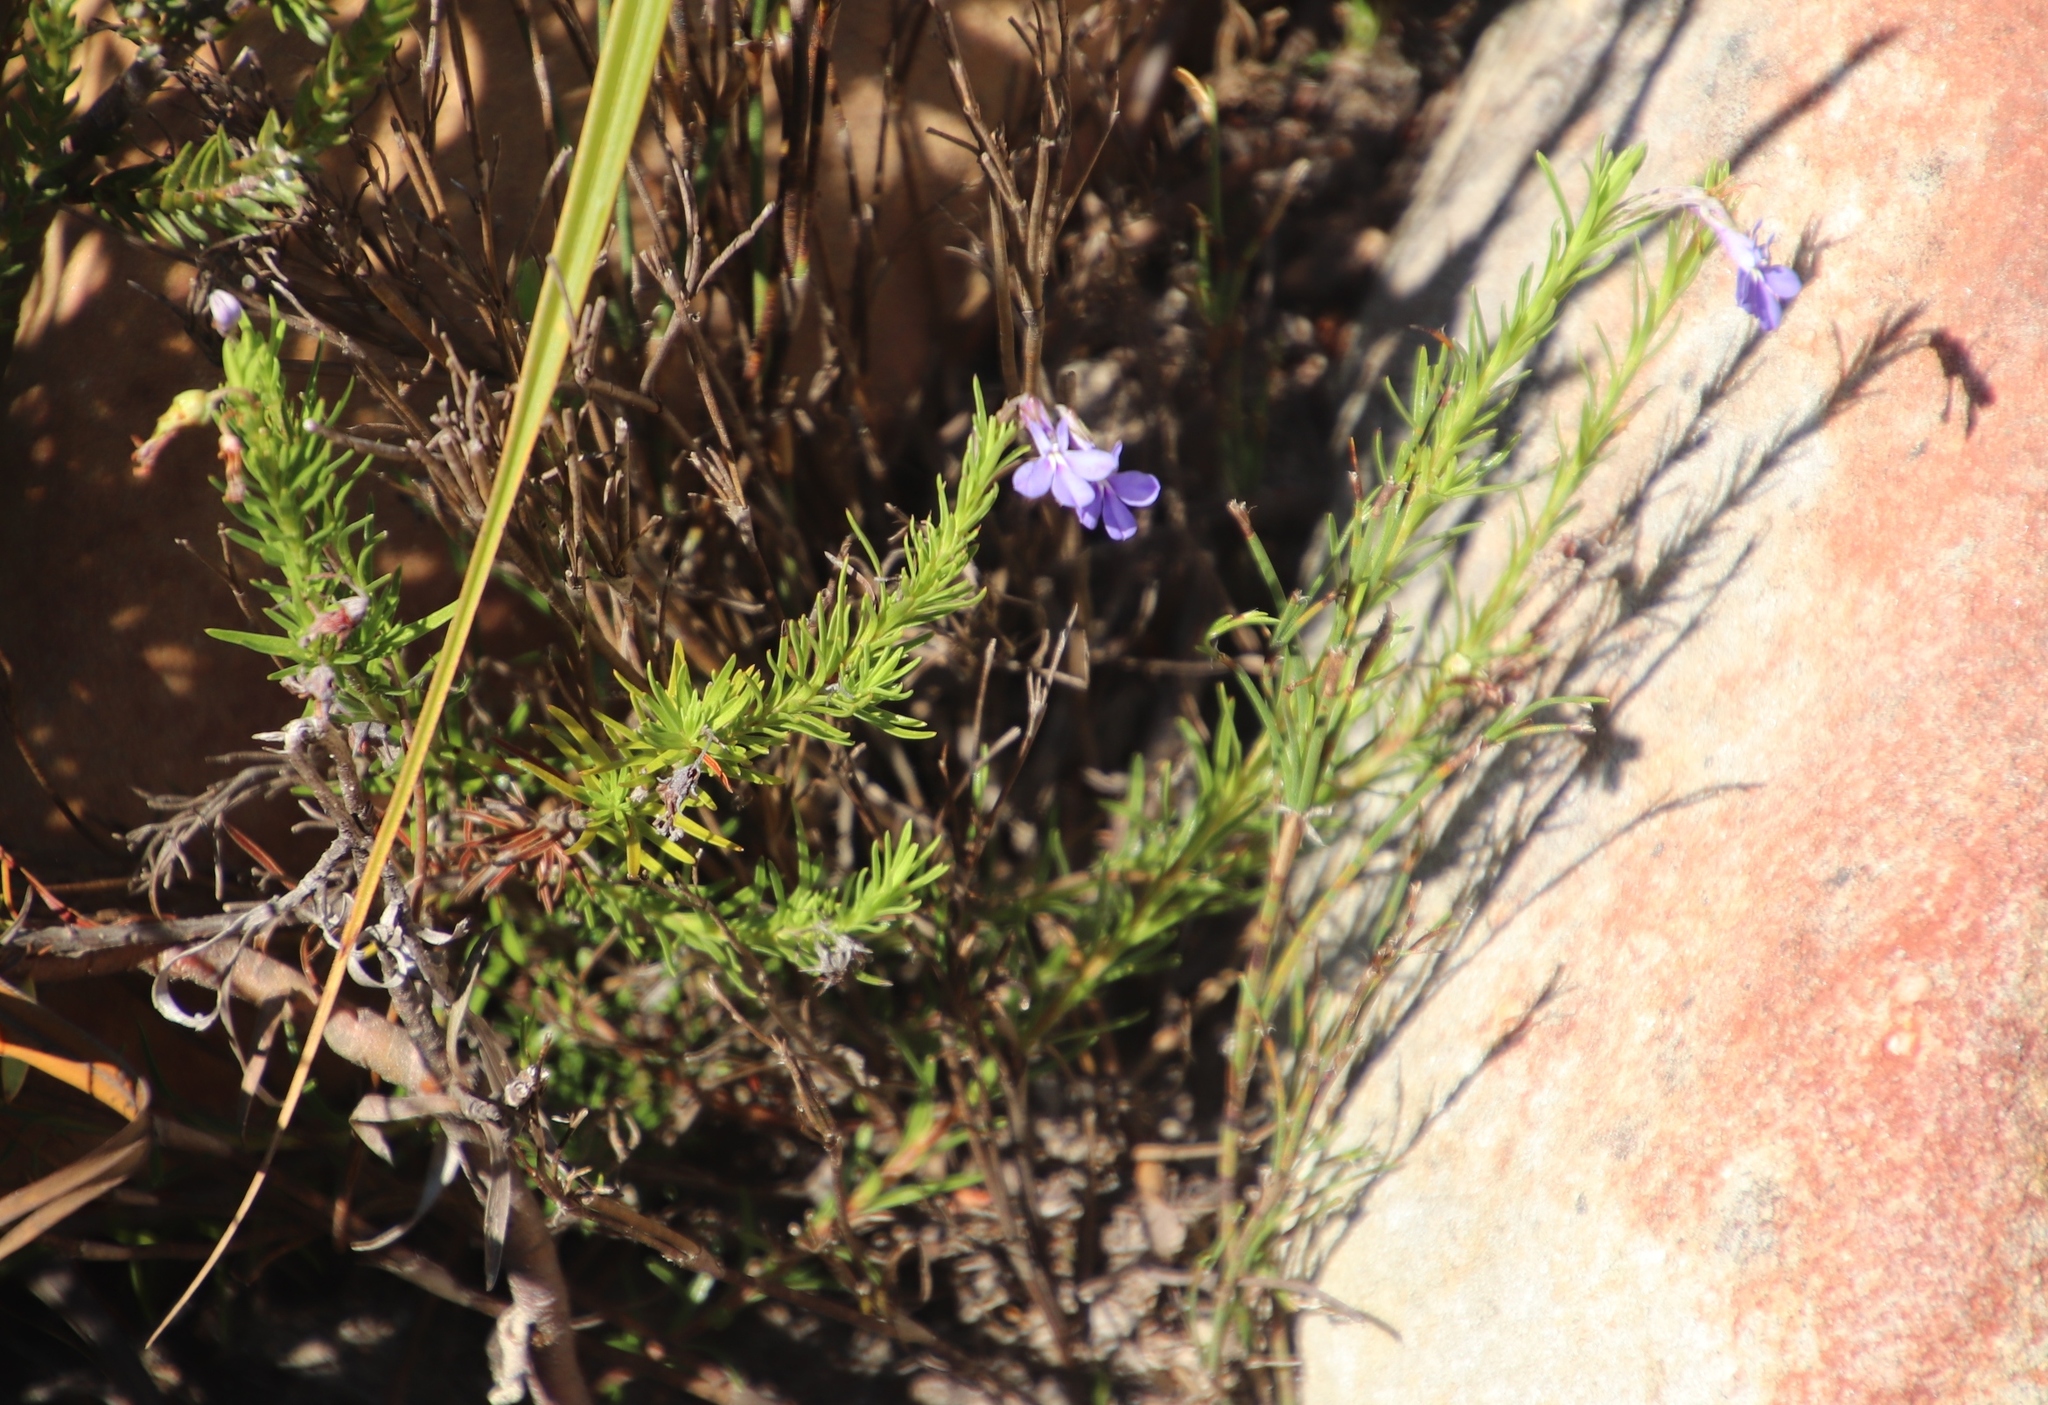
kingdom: Plantae
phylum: Tracheophyta
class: Magnoliopsida
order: Asterales
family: Campanulaceae
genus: Lobelia
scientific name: Lobelia pinifolia
